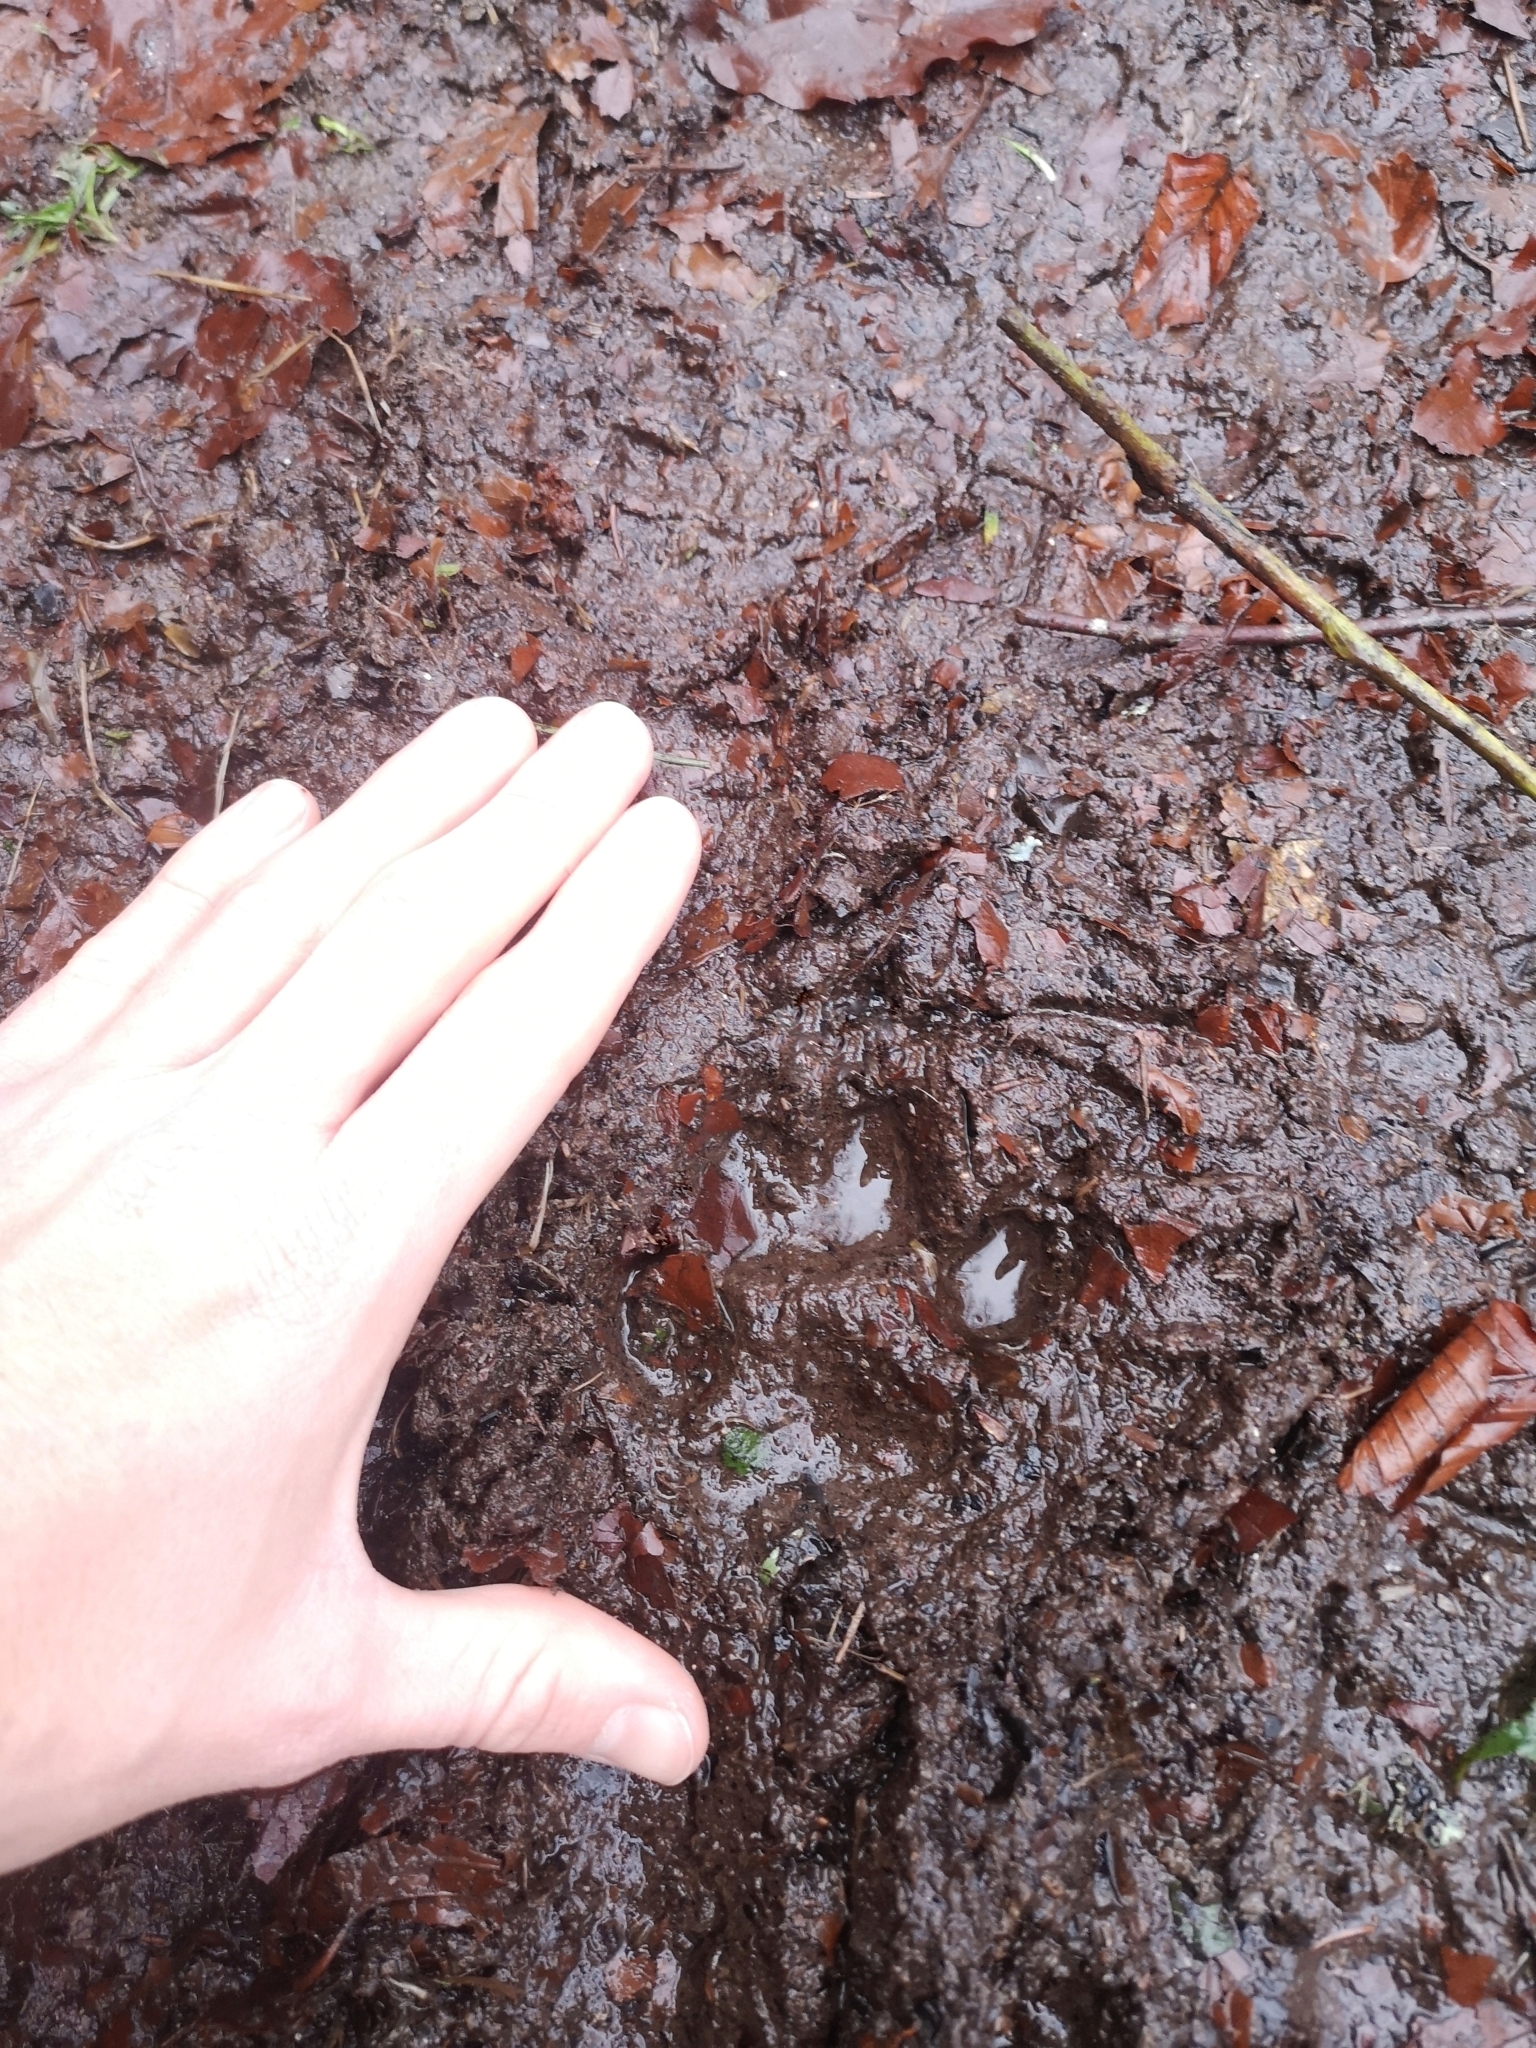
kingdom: Animalia
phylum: Chordata
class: Mammalia
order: Carnivora
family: Felidae
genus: Lynx
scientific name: Lynx lynx
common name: Eurasian lynx
